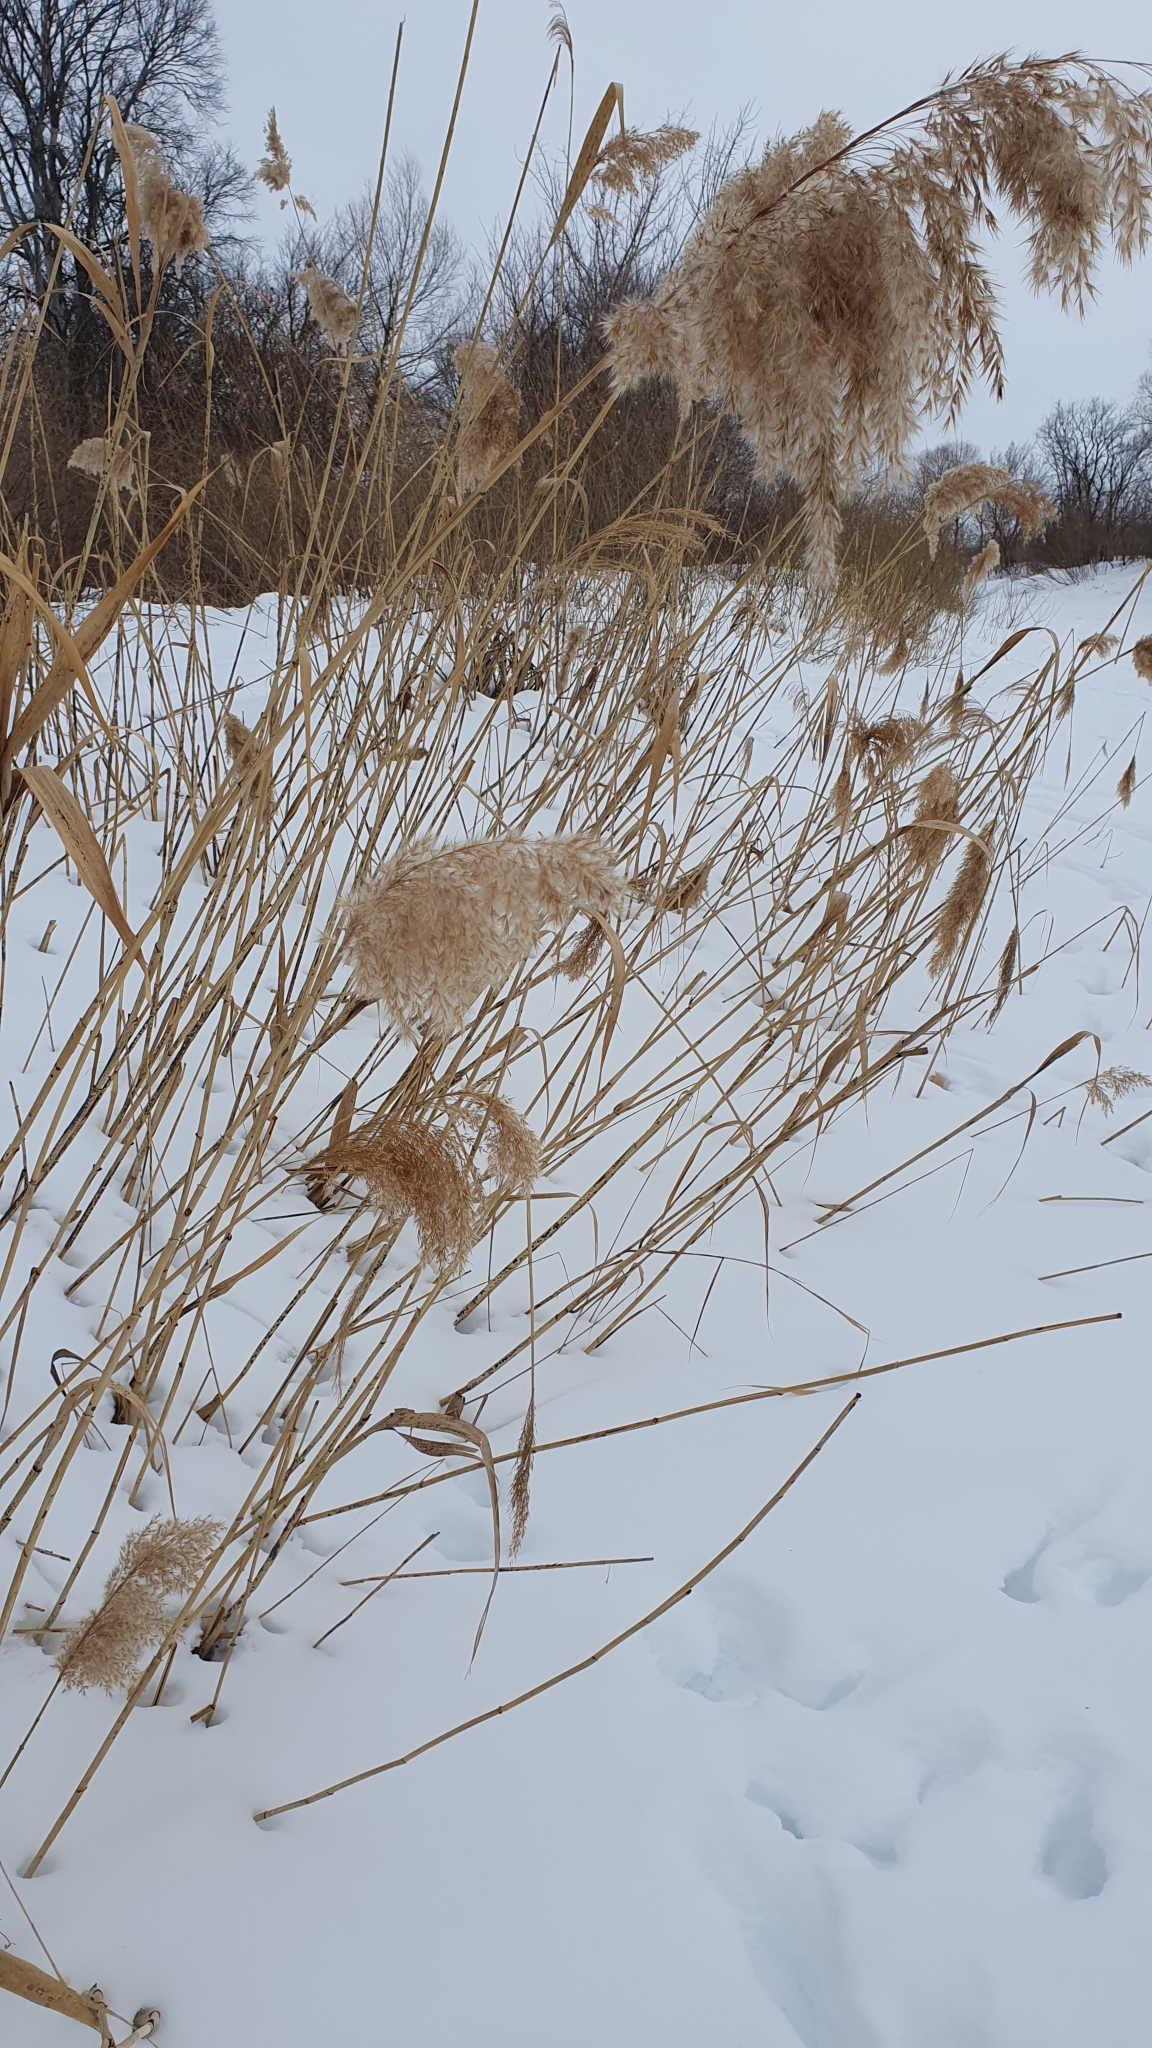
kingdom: Plantae
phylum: Tracheophyta
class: Liliopsida
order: Poales
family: Poaceae
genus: Phragmites
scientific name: Phragmites australis
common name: Common reed
